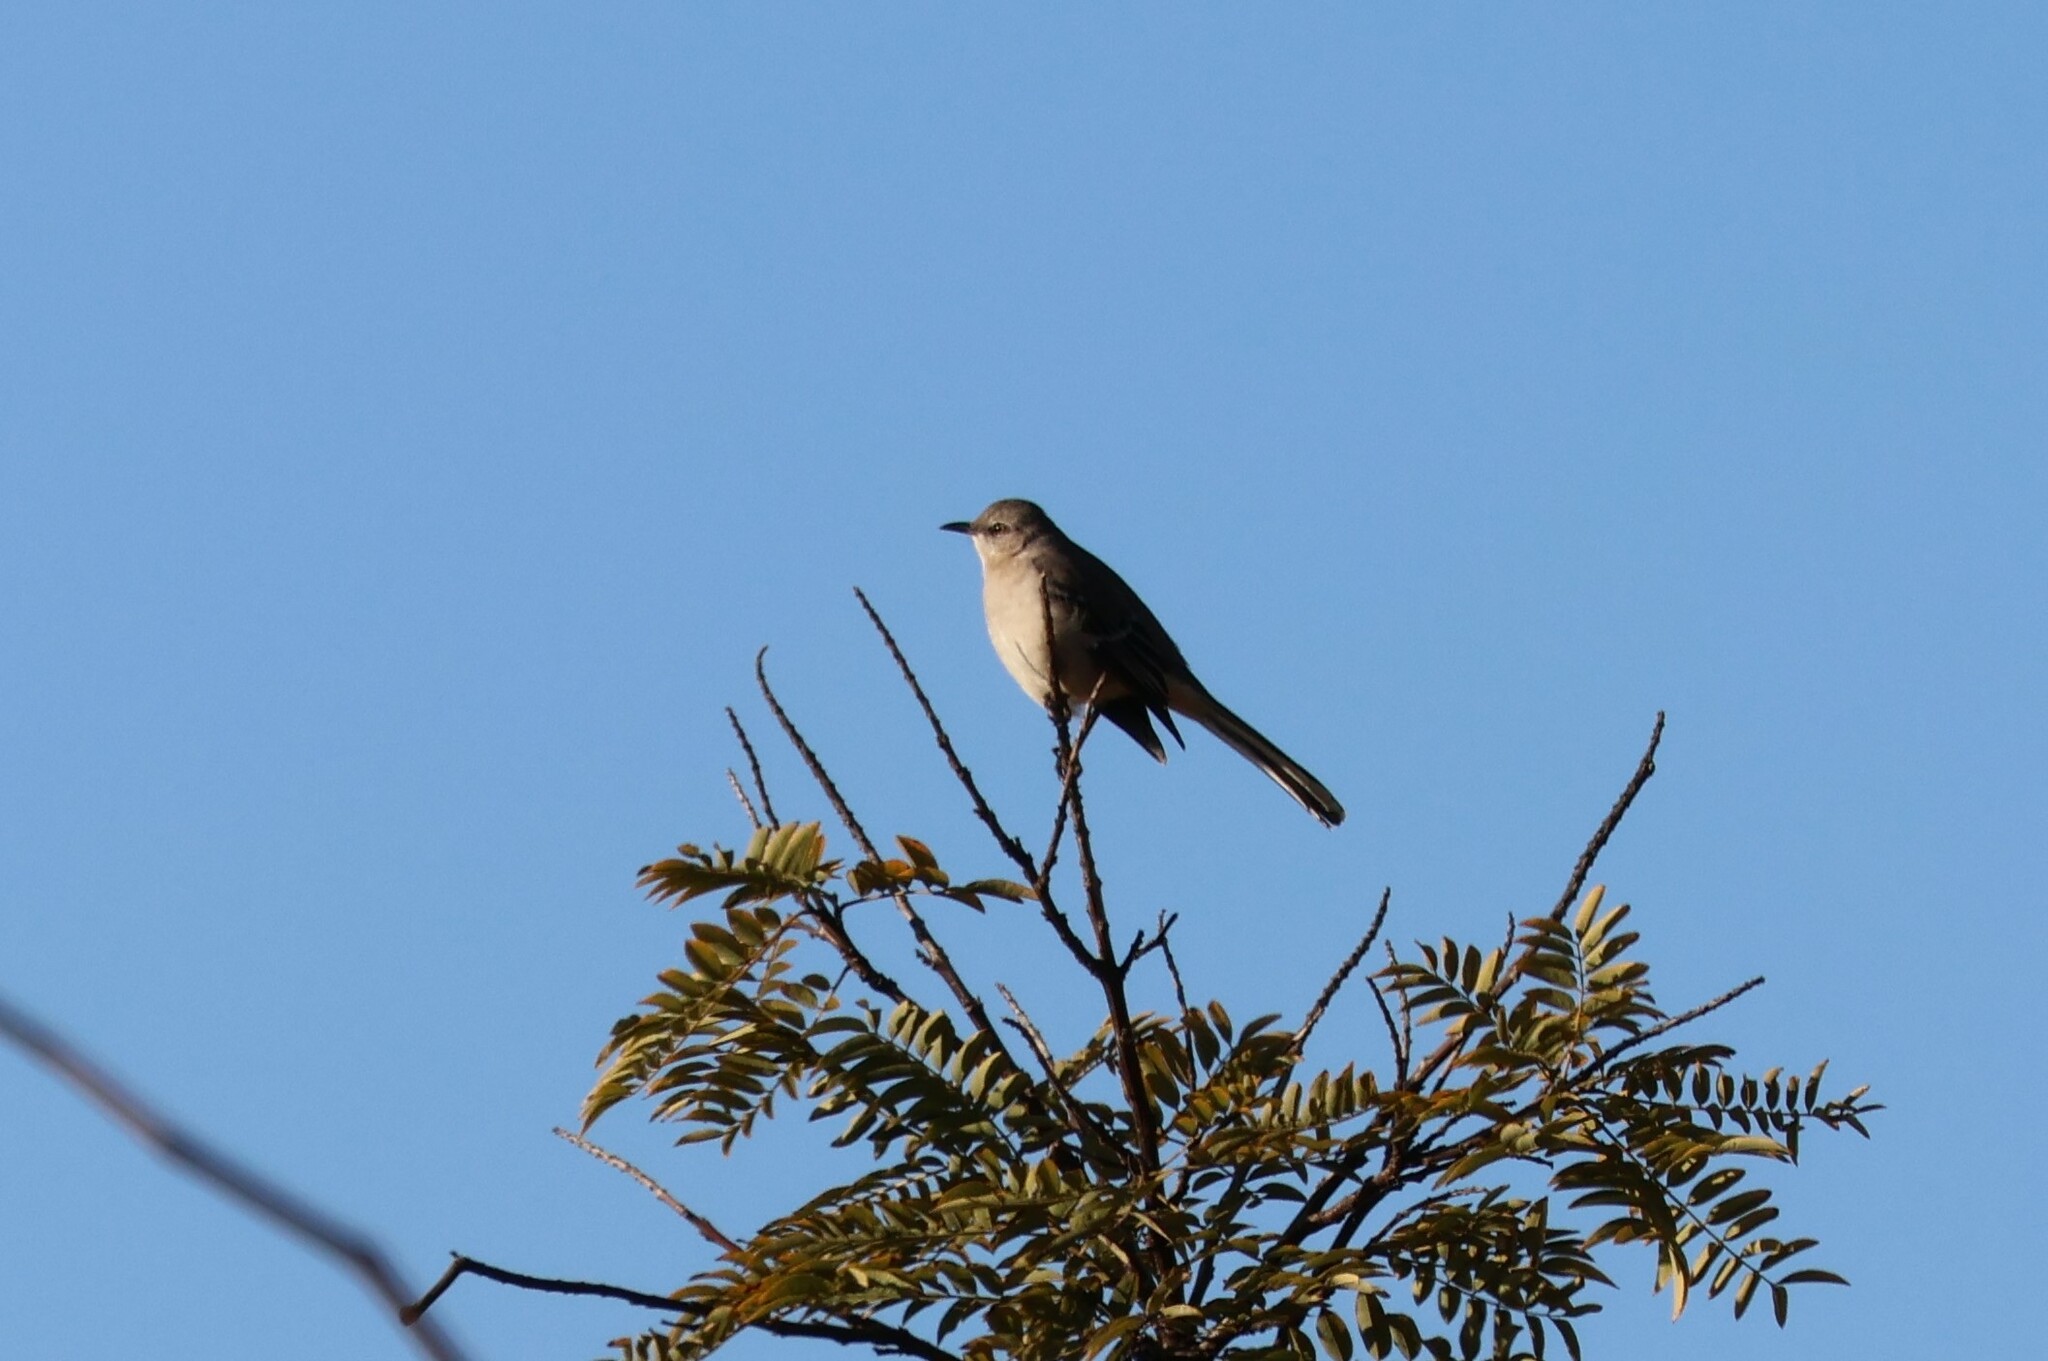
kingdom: Animalia
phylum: Chordata
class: Aves
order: Passeriformes
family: Mimidae
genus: Mimus
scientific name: Mimus polyglottos
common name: Northern mockingbird
